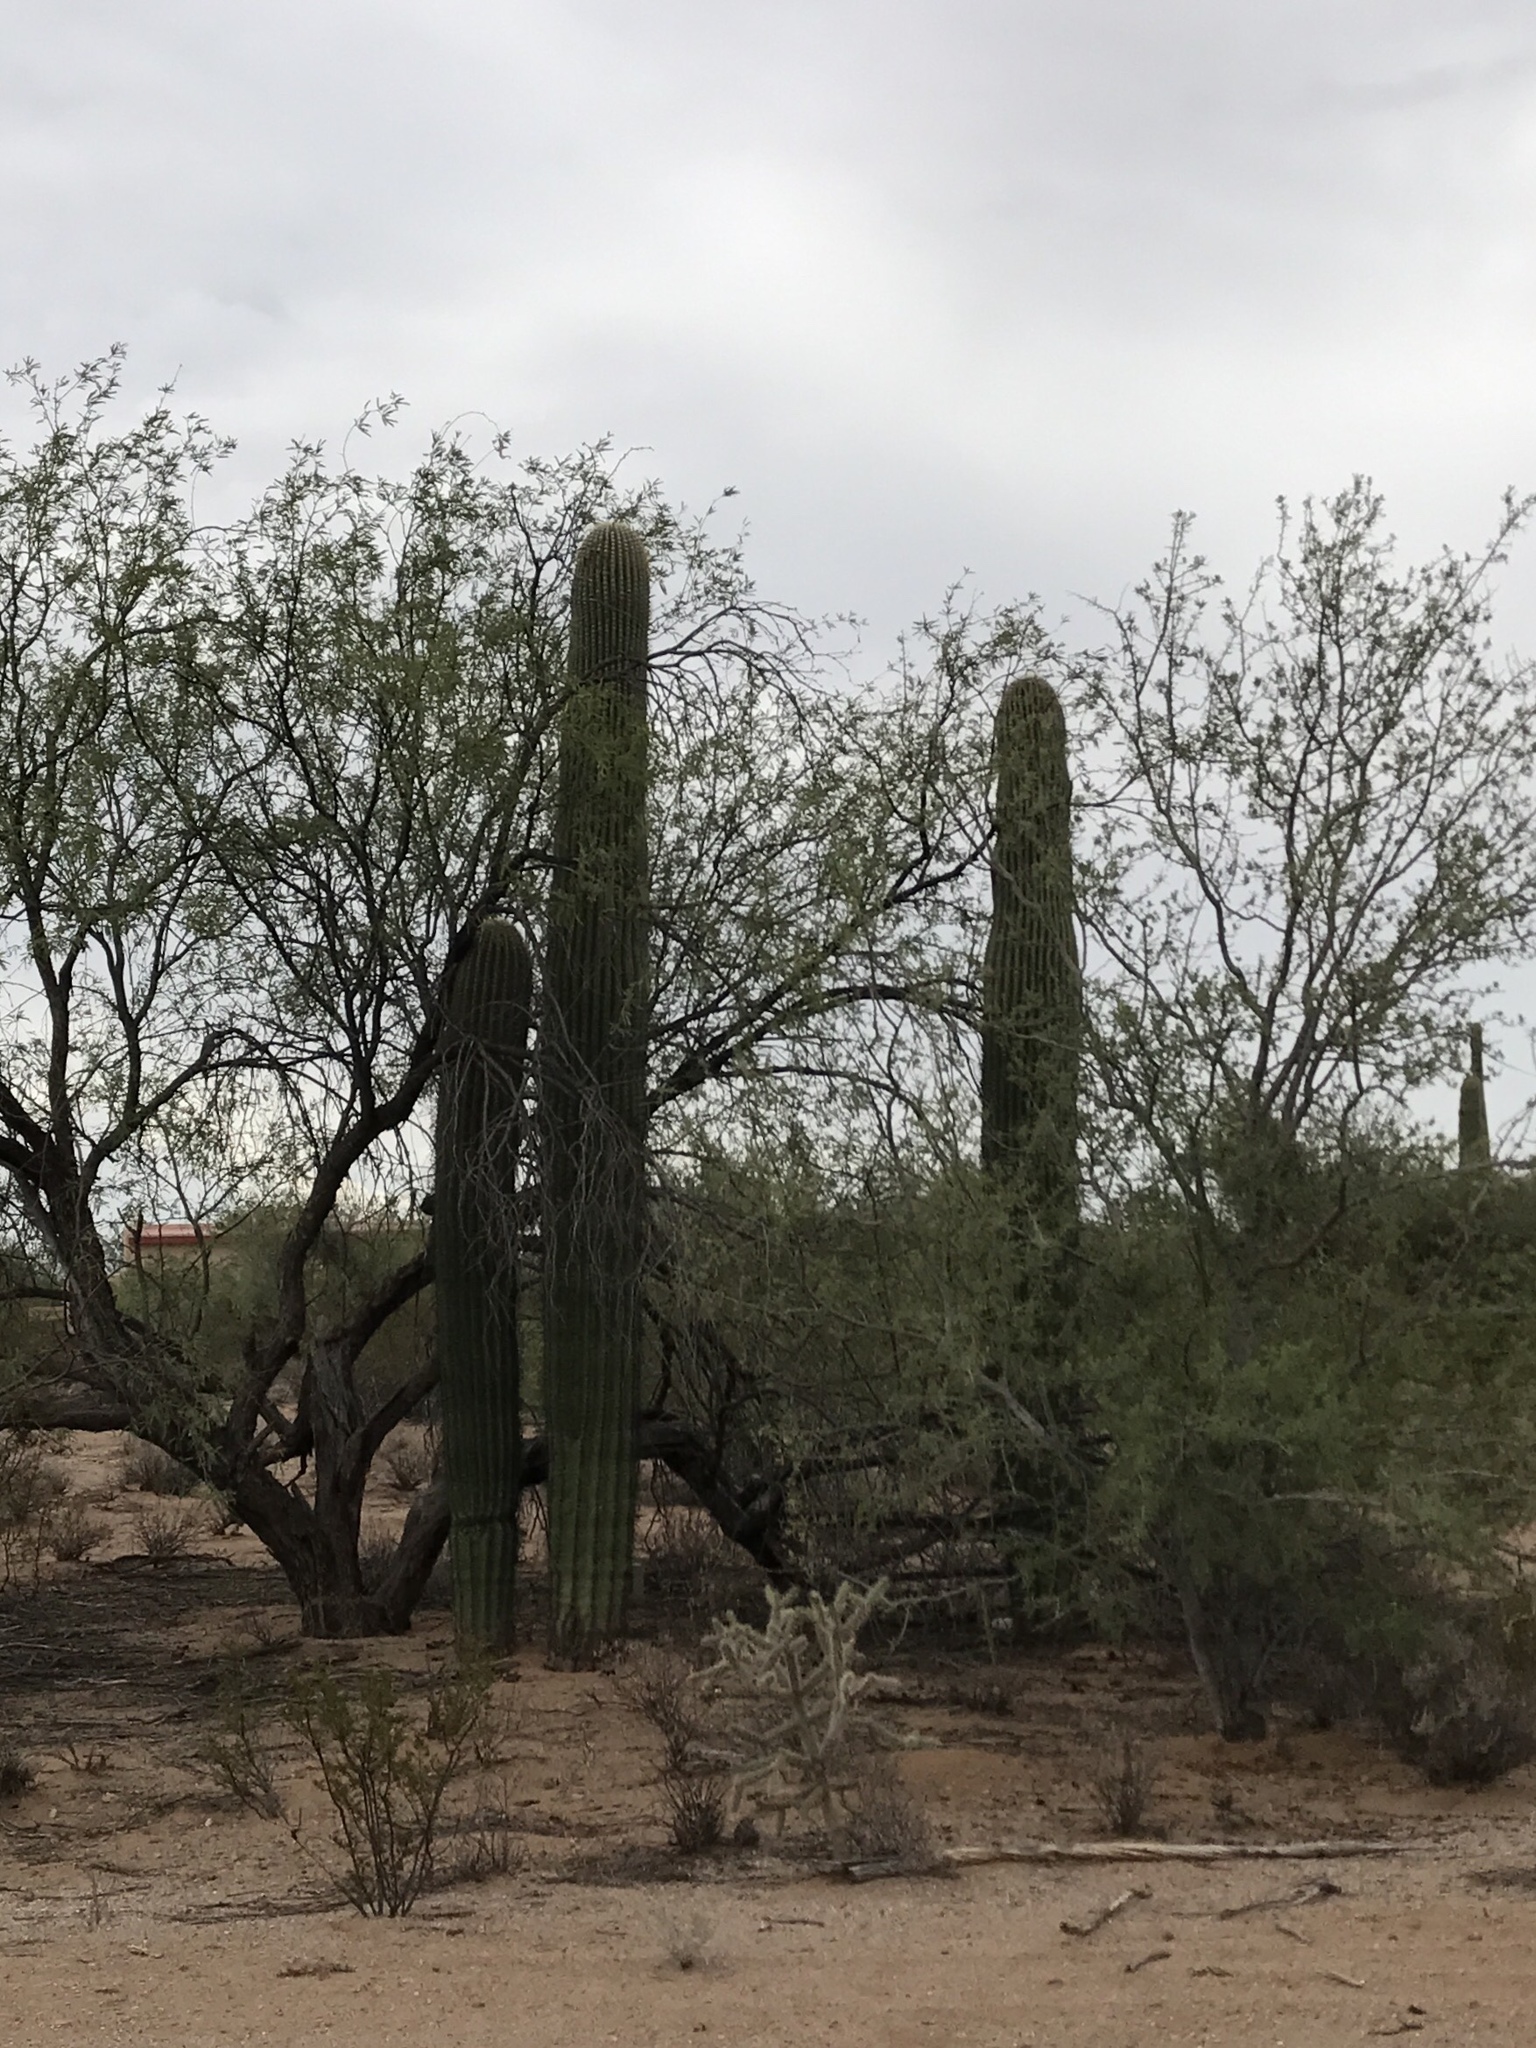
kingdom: Plantae
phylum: Tracheophyta
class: Magnoliopsida
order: Caryophyllales
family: Cactaceae
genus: Carnegiea
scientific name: Carnegiea gigantea
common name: Saguaro
